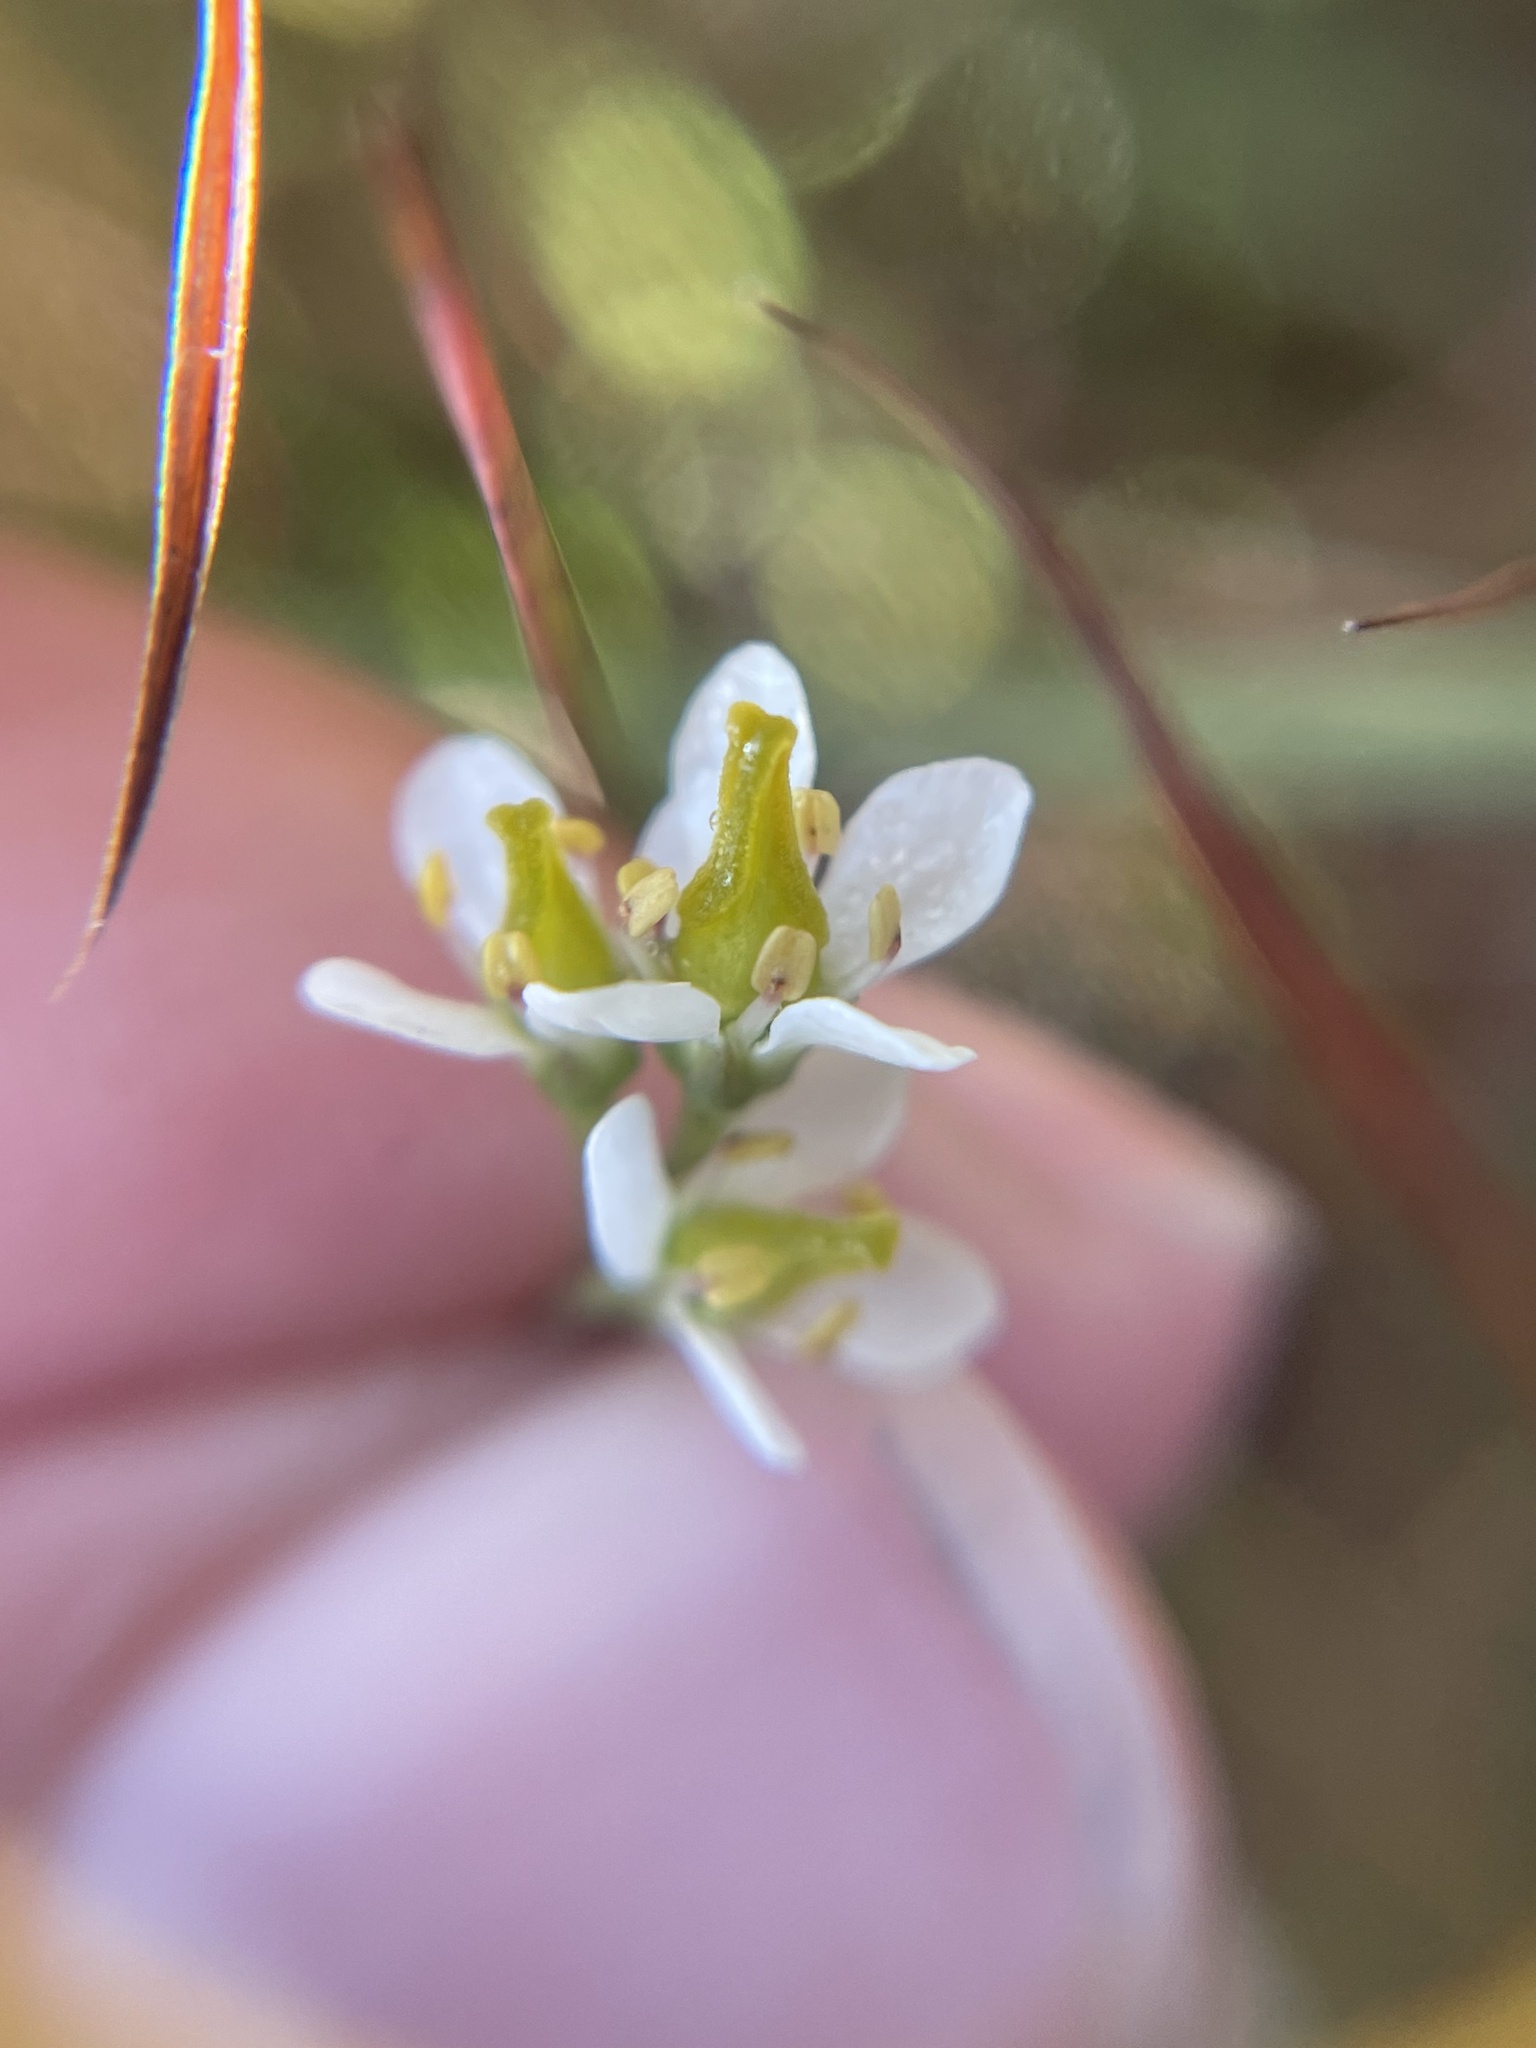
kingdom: Plantae
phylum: Tracheophyta
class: Magnoliopsida
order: Gentianales
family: Gentianaceae
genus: Bartonia
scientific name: Bartonia verna
